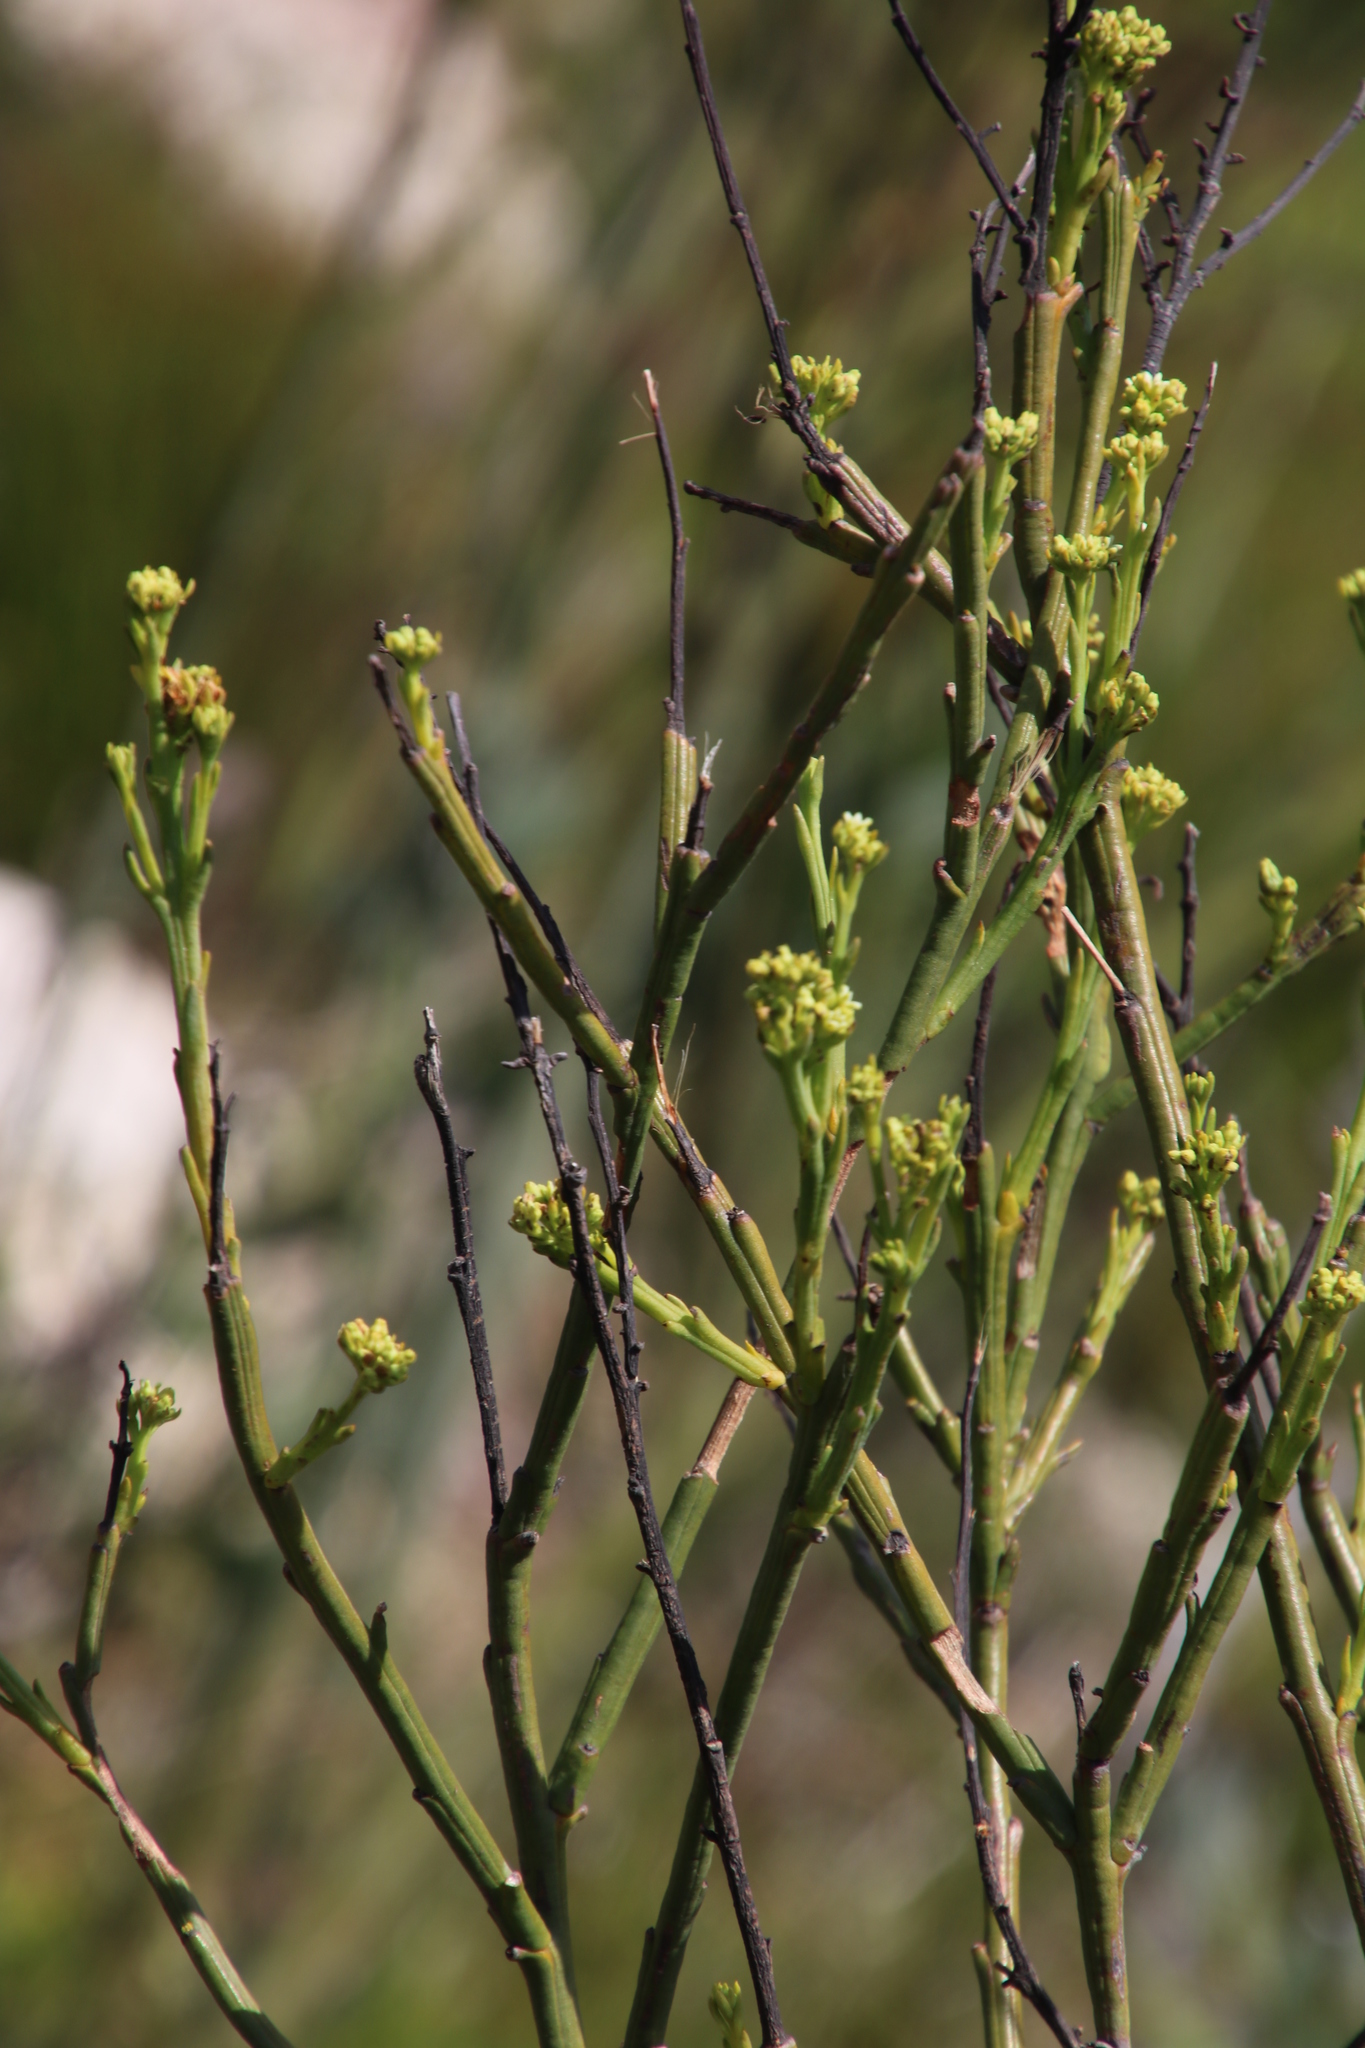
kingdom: Plantae
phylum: Tracheophyta
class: Magnoliopsida
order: Santalales
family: Thesiaceae
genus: Thesium
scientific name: Thesium strictum
